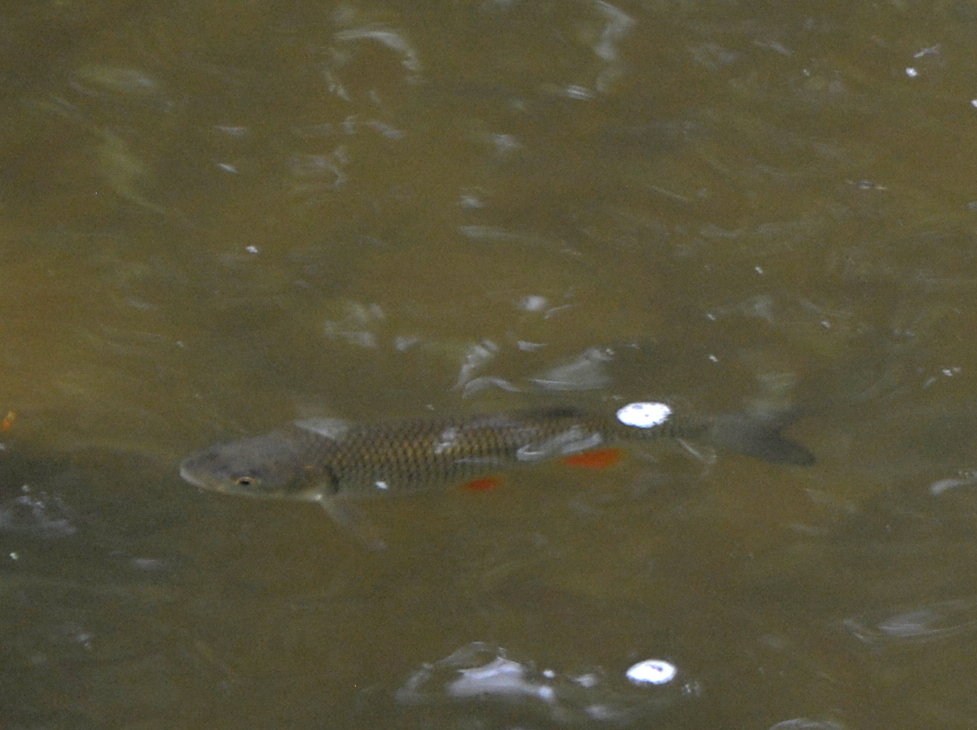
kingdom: Animalia
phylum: Chordata
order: Cypriniformes
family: Cyprinidae
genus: Squalius
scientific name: Squalius cephalus
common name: Chub
